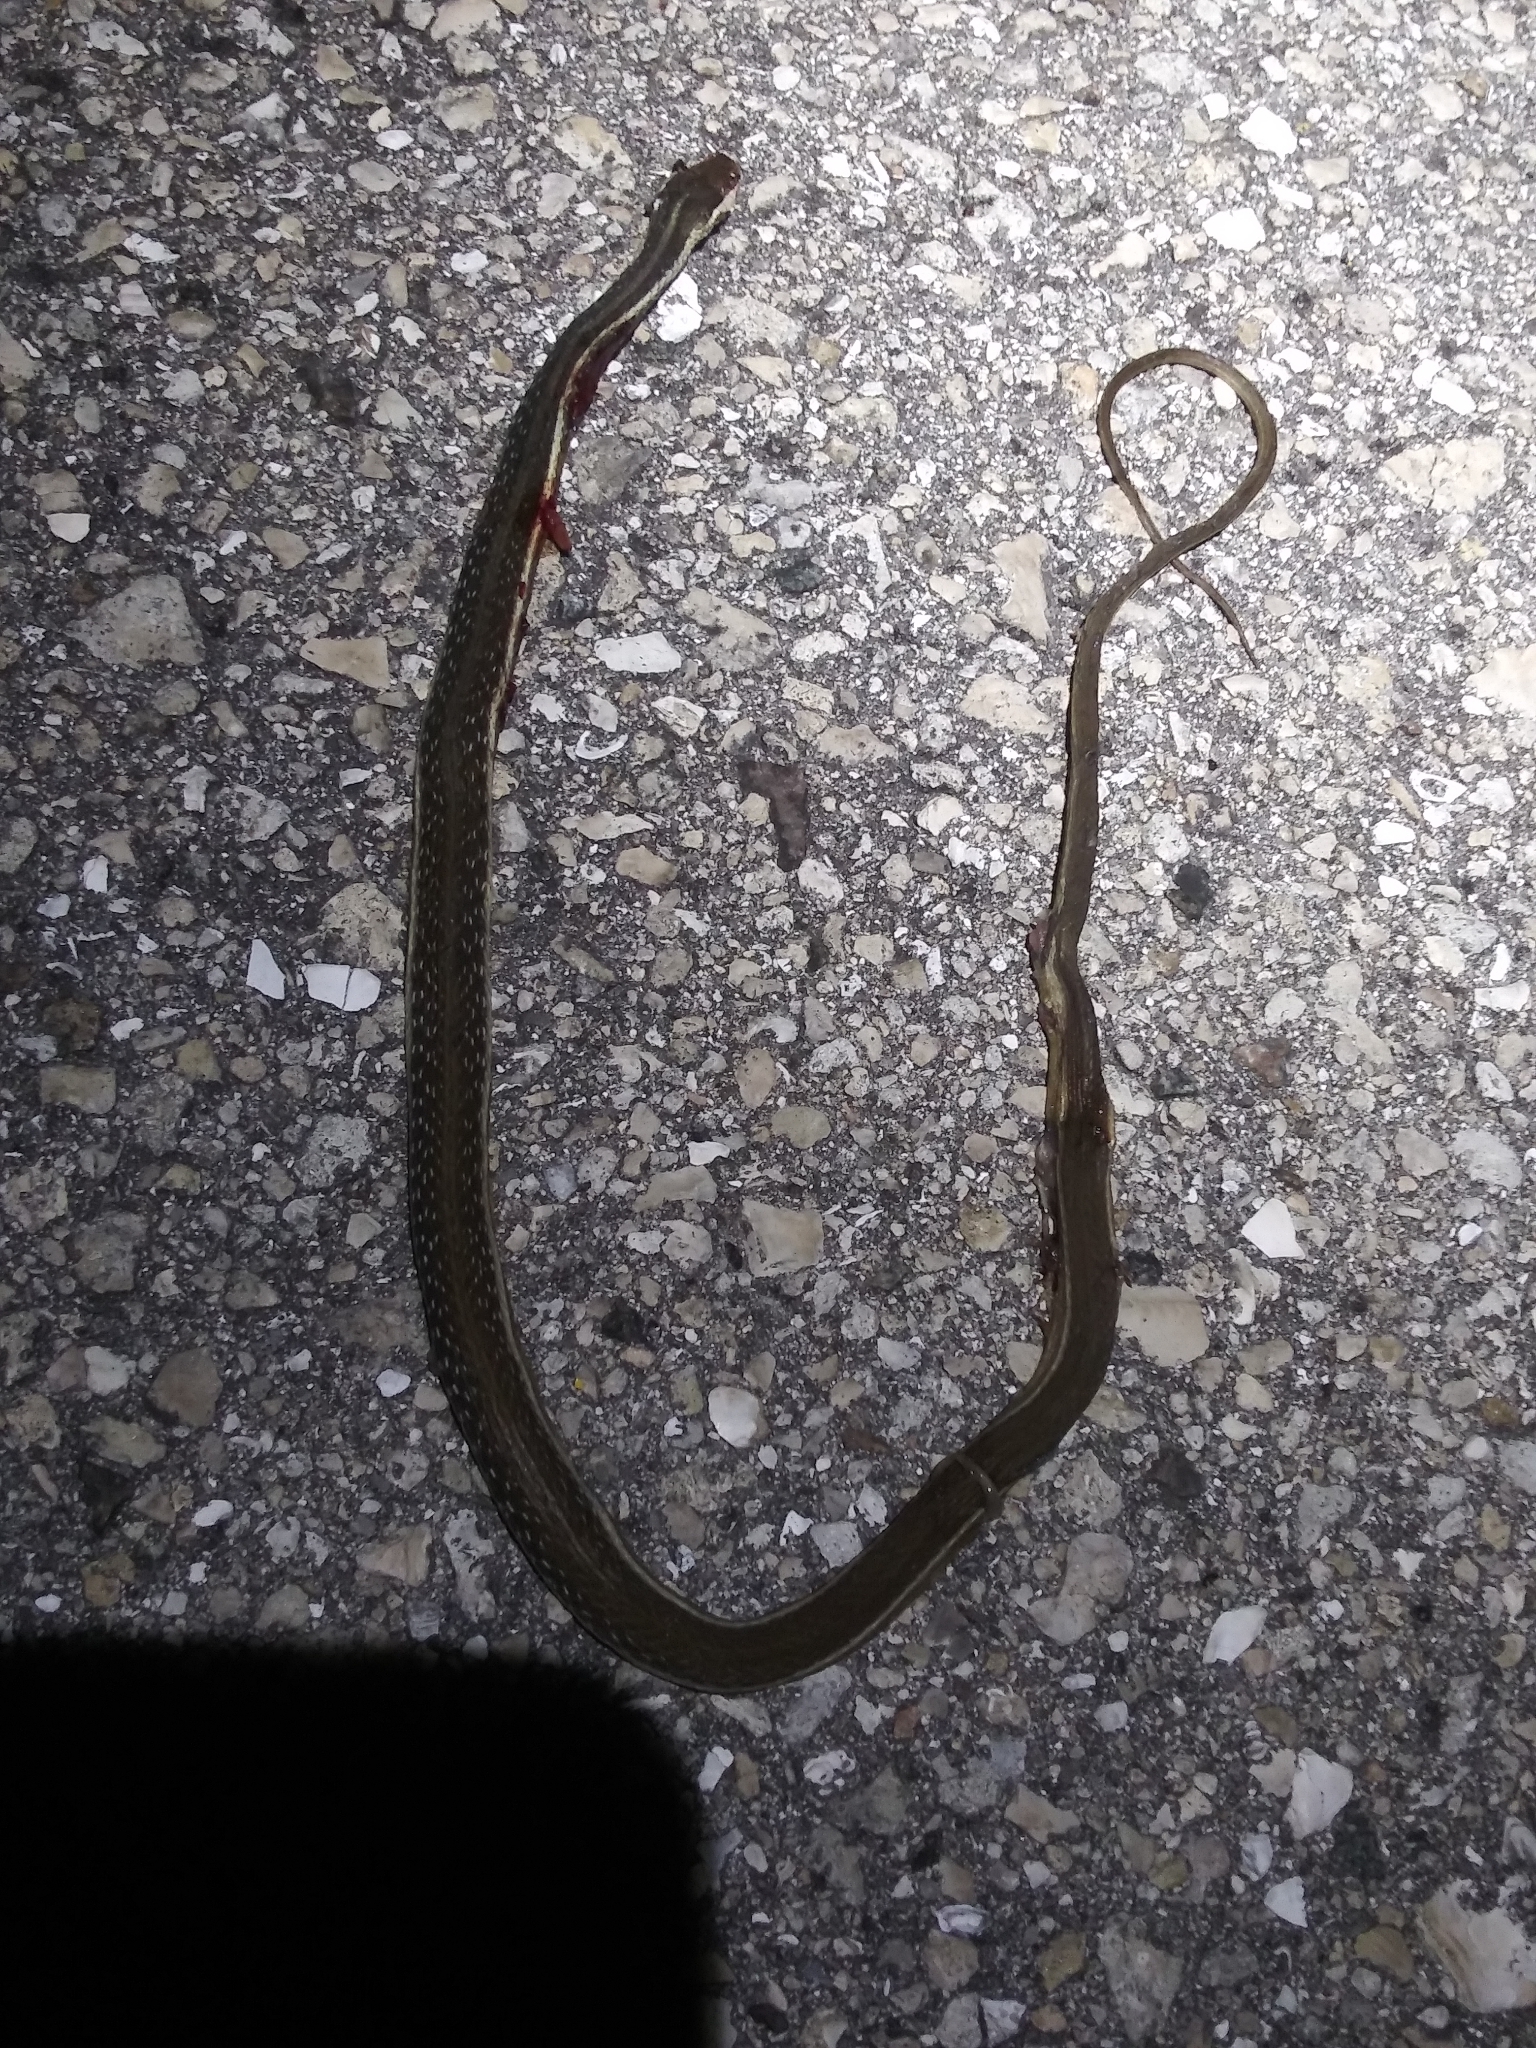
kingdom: Animalia
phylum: Chordata
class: Squamata
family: Colubridae
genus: Thamnophis
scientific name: Thamnophis saurita
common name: Eastern ribbonsnake
